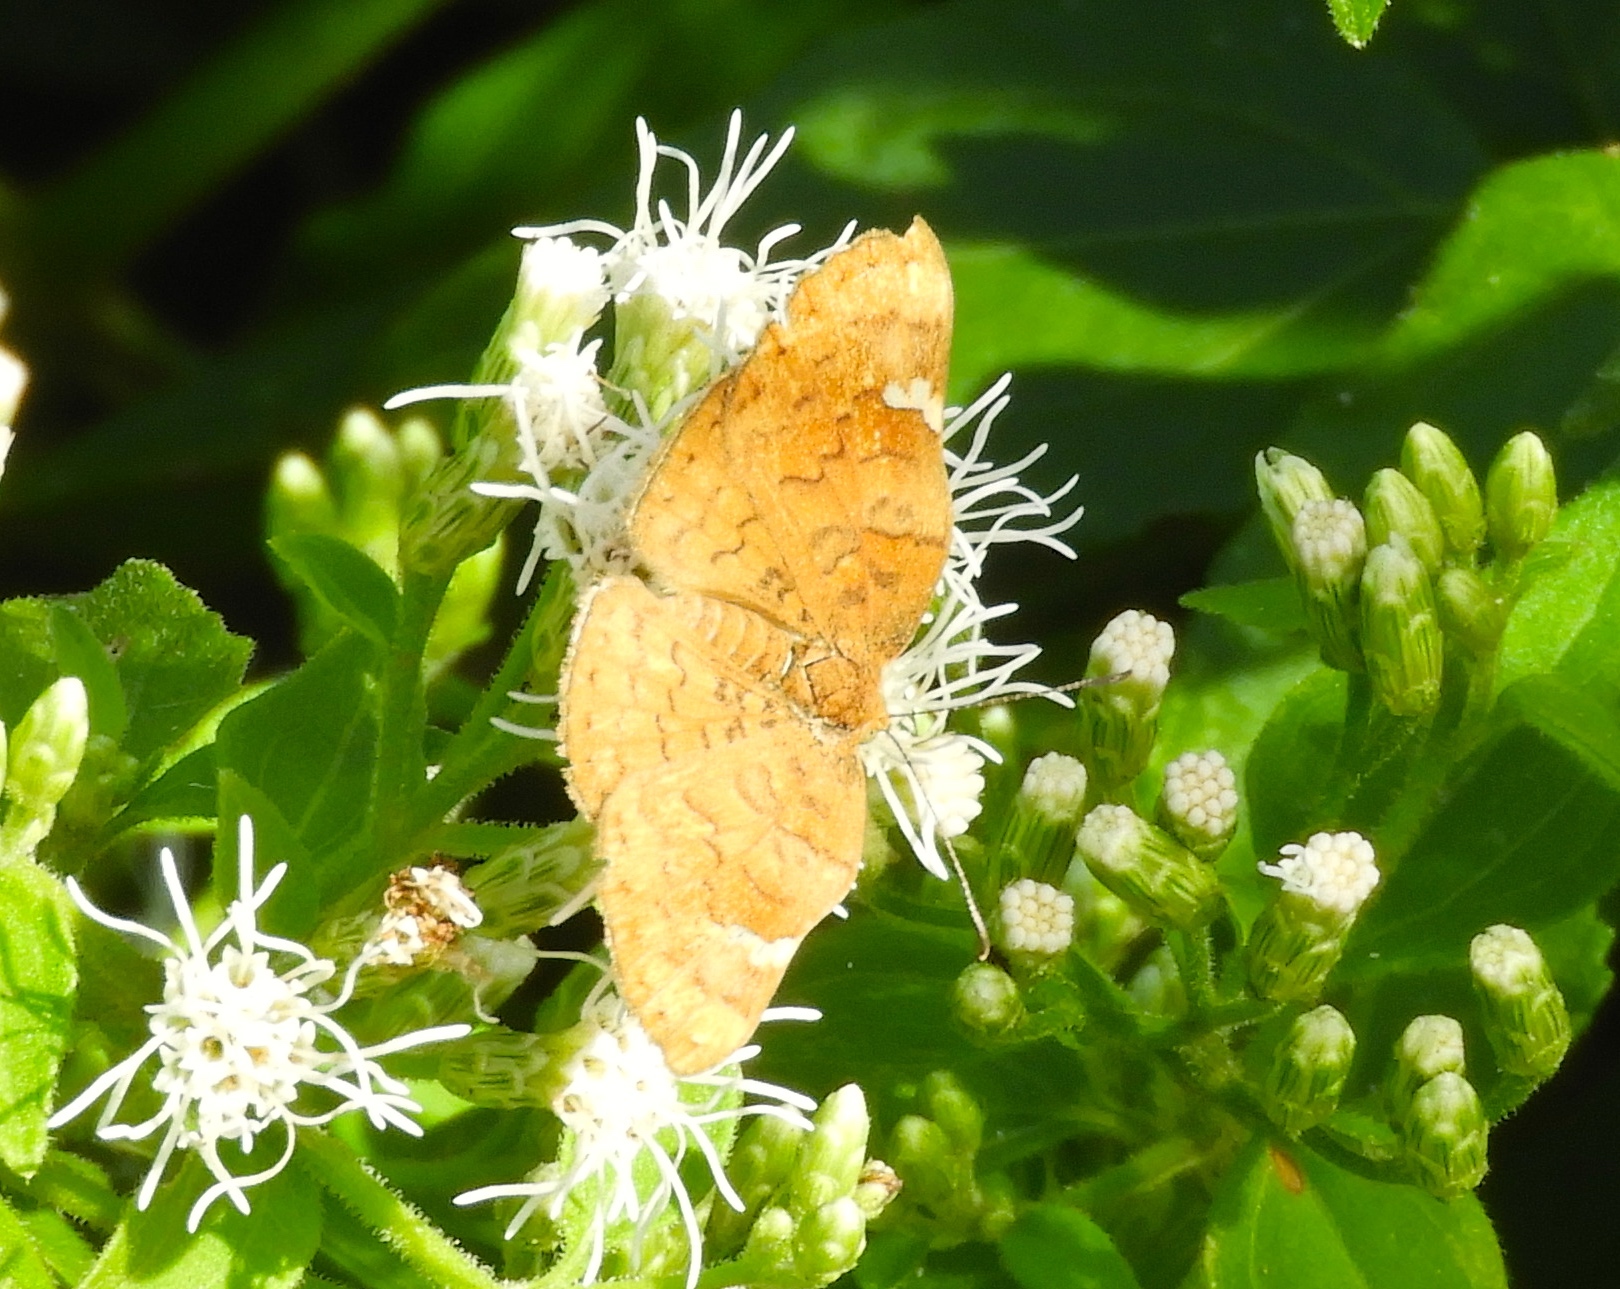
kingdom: Animalia
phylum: Arthropoda
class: Insecta
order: Lepidoptera
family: Riodinidae
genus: Curvie
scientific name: Curvie emesia
